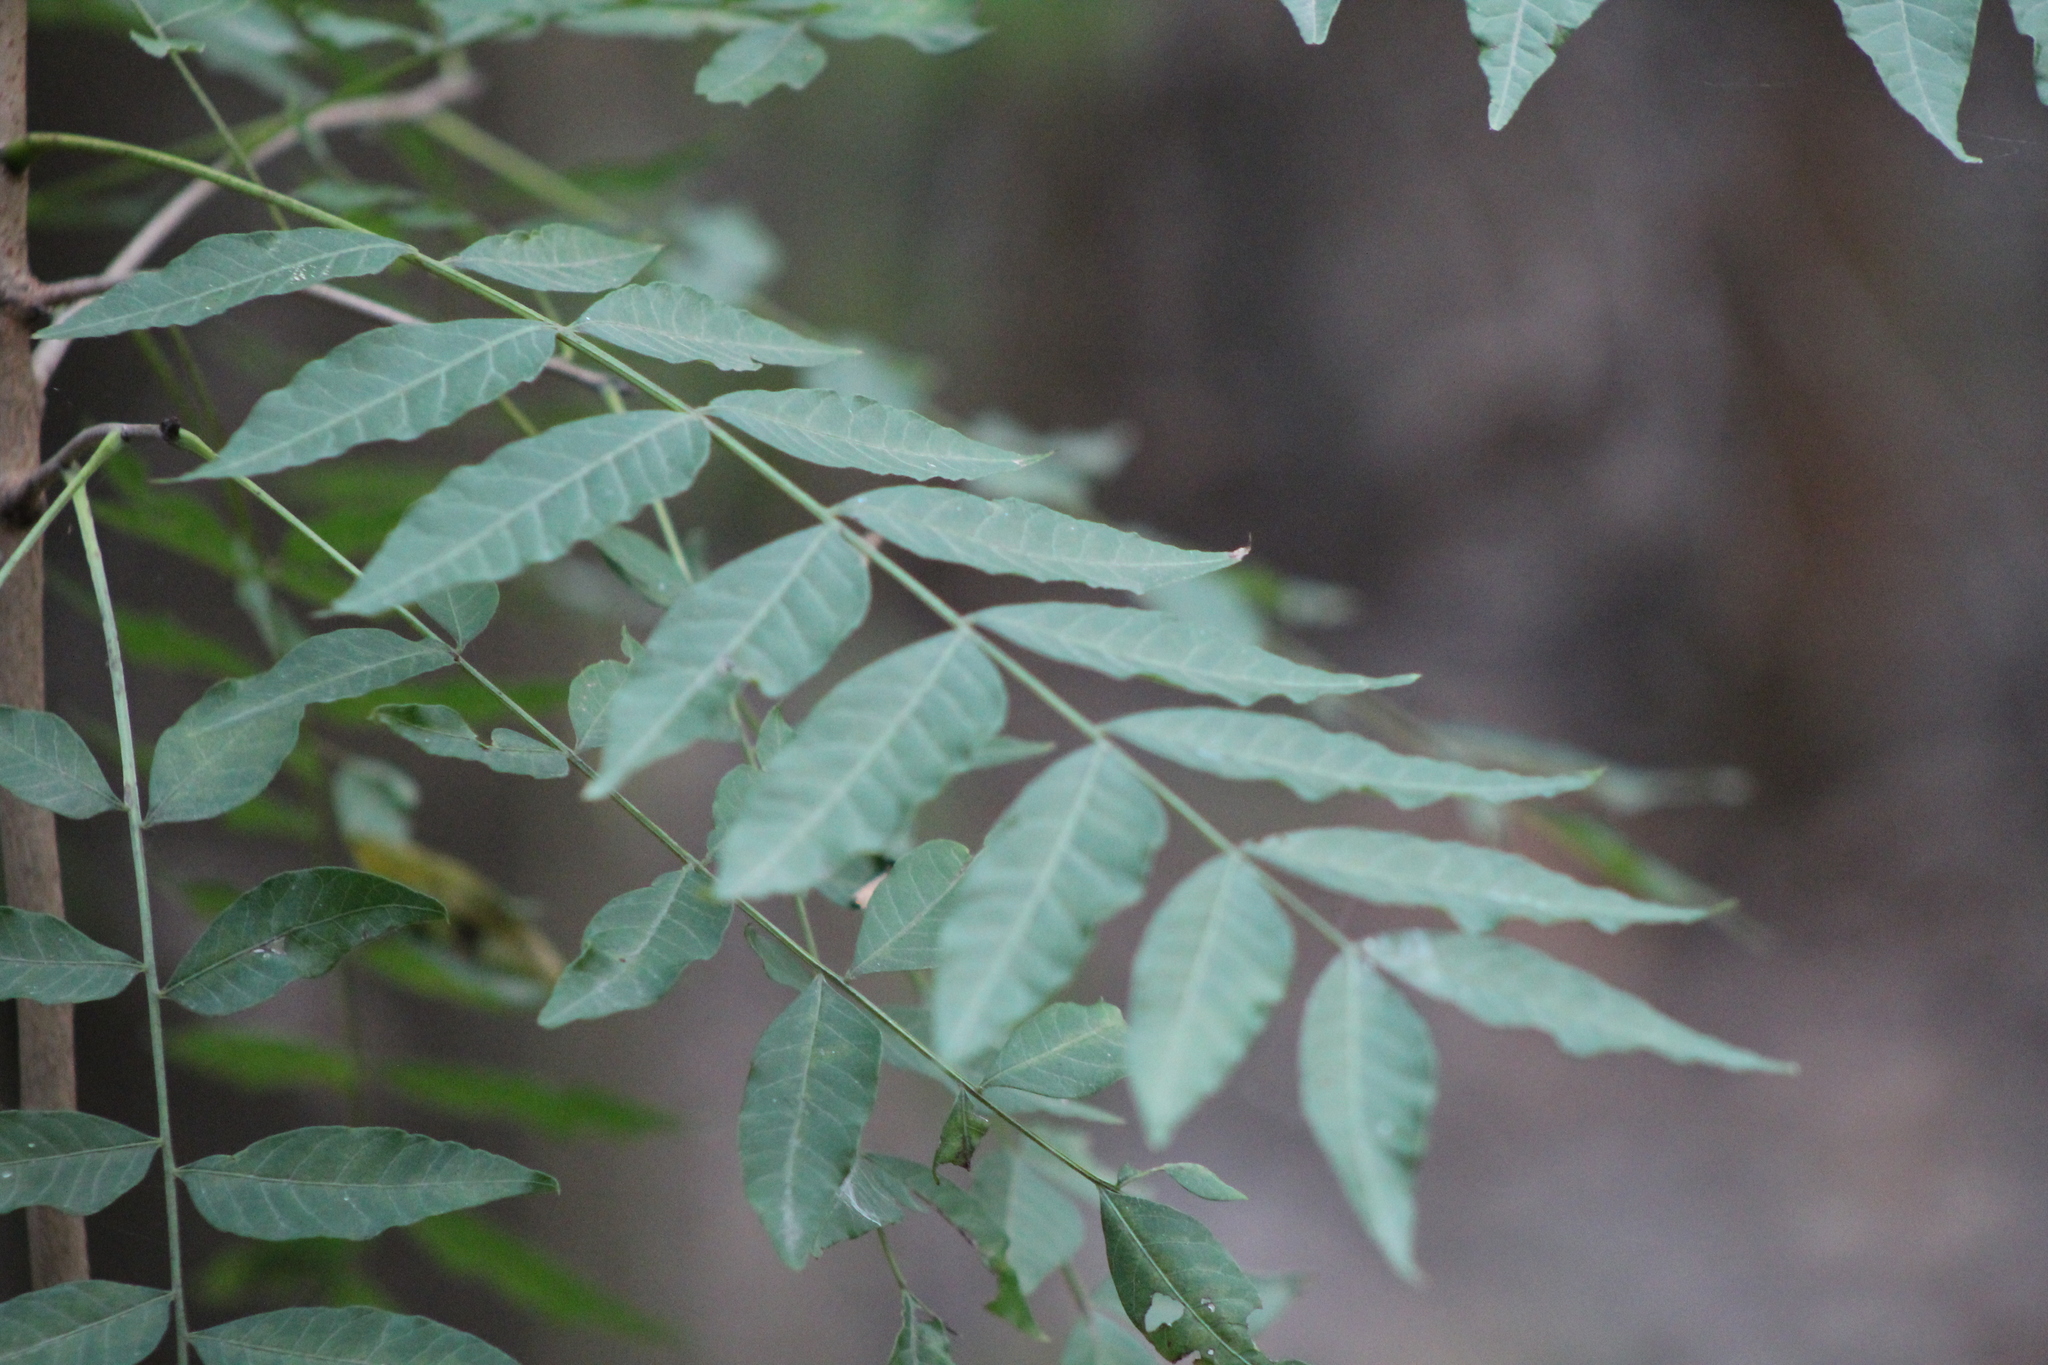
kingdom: Plantae
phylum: Tracheophyta
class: Magnoliopsida
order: Sapindales
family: Anacardiaceae
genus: Pistacia
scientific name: Pistacia chinensis
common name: Chinese pistache
